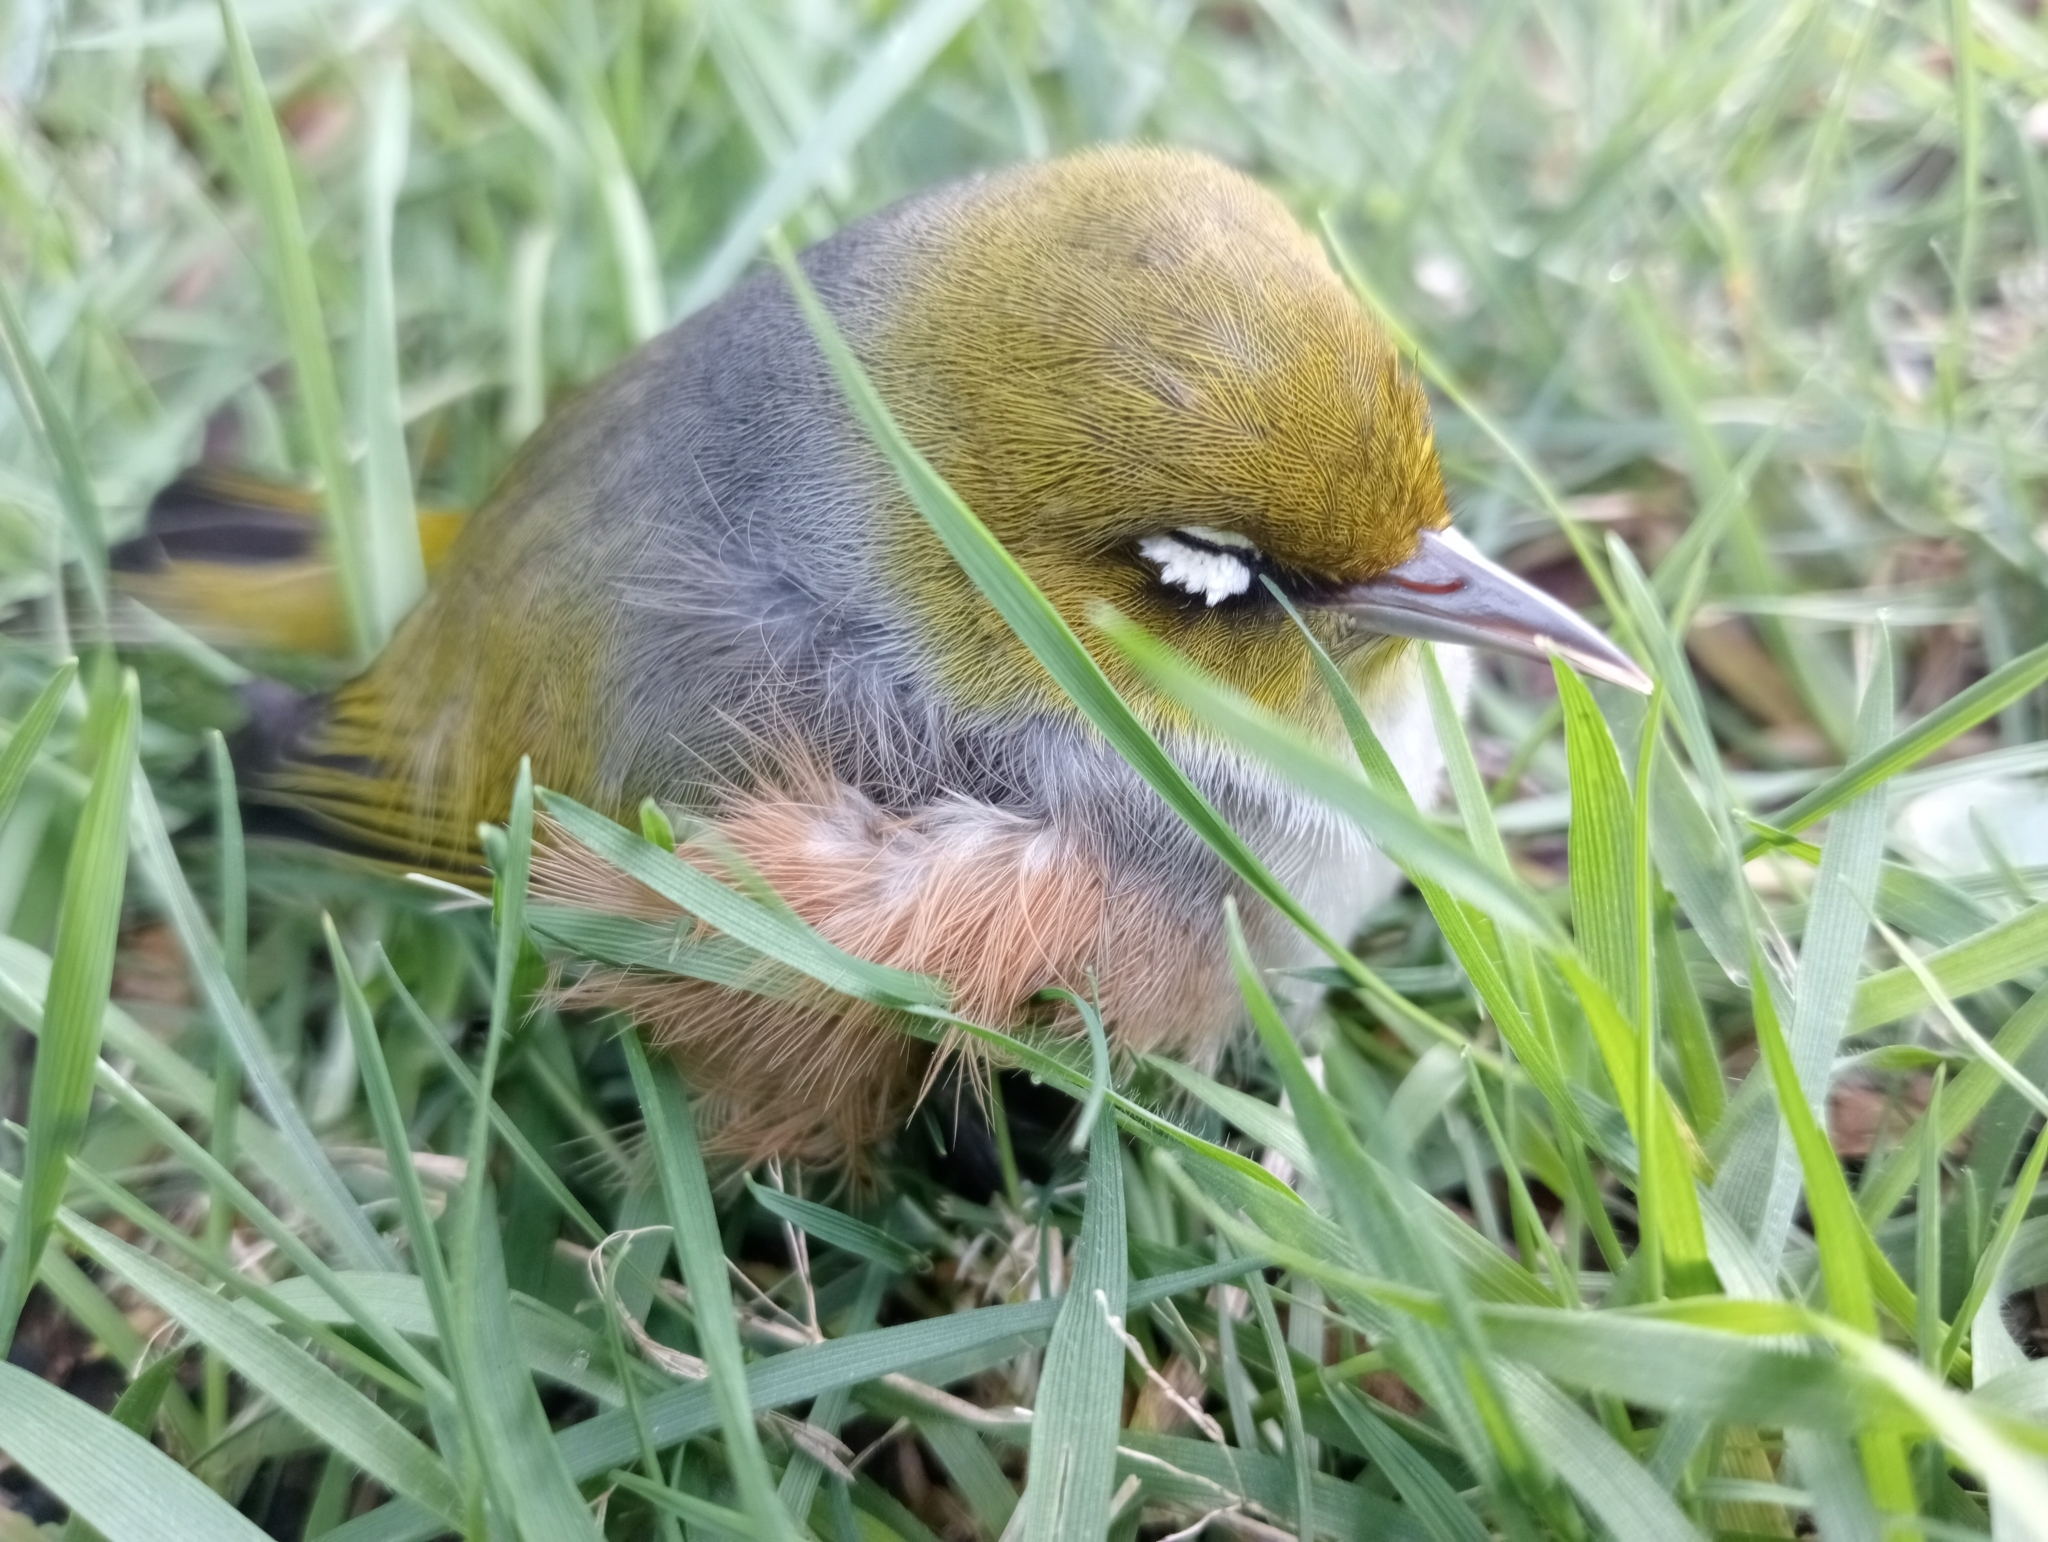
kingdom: Animalia
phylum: Chordata
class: Aves
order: Passeriformes
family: Zosteropidae
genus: Zosterops
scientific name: Zosterops lateralis
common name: Silvereye
